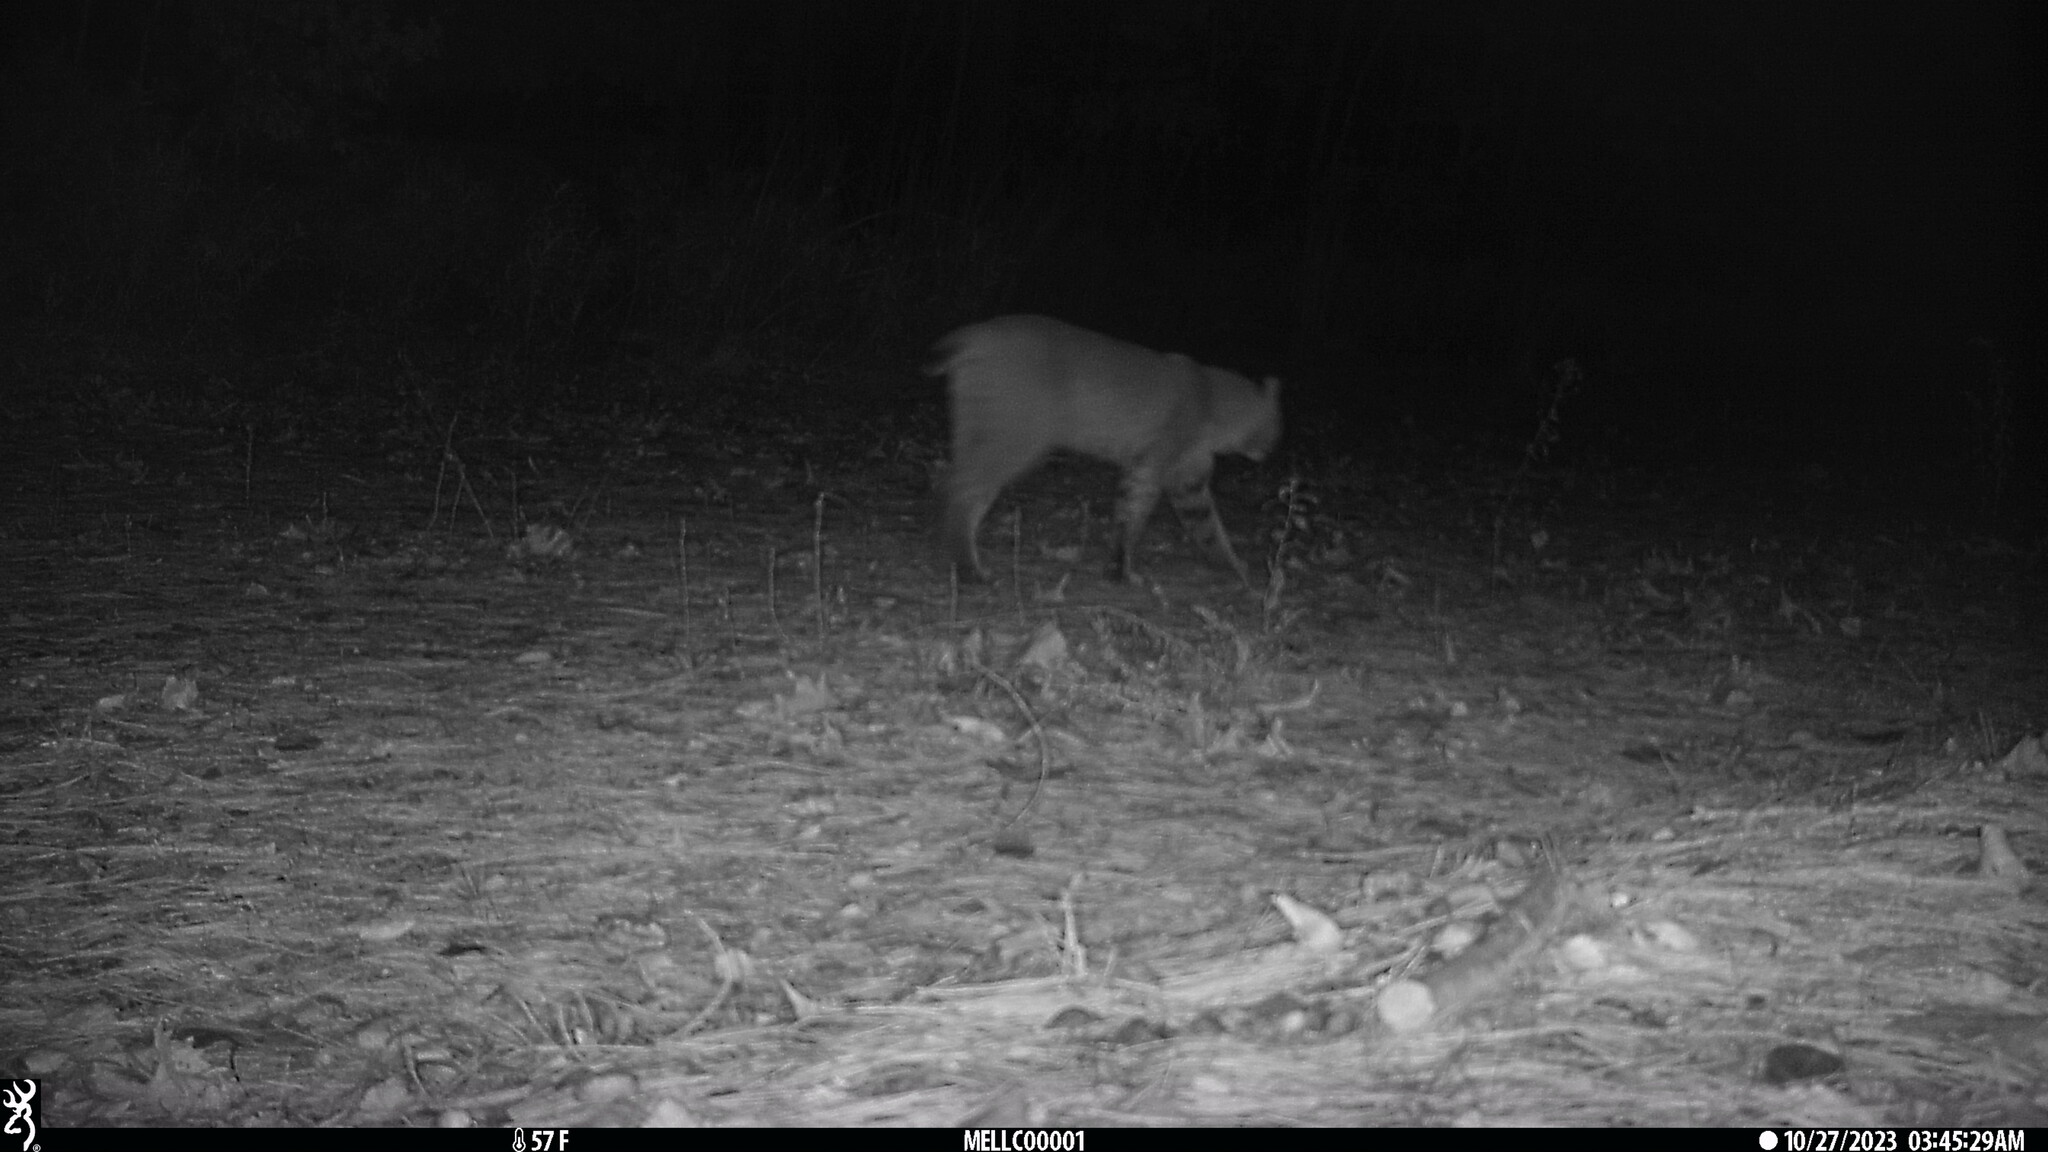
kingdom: Animalia
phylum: Chordata
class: Mammalia
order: Carnivora
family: Felidae
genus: Lynx
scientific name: Lynx rufus
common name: Bobcat
